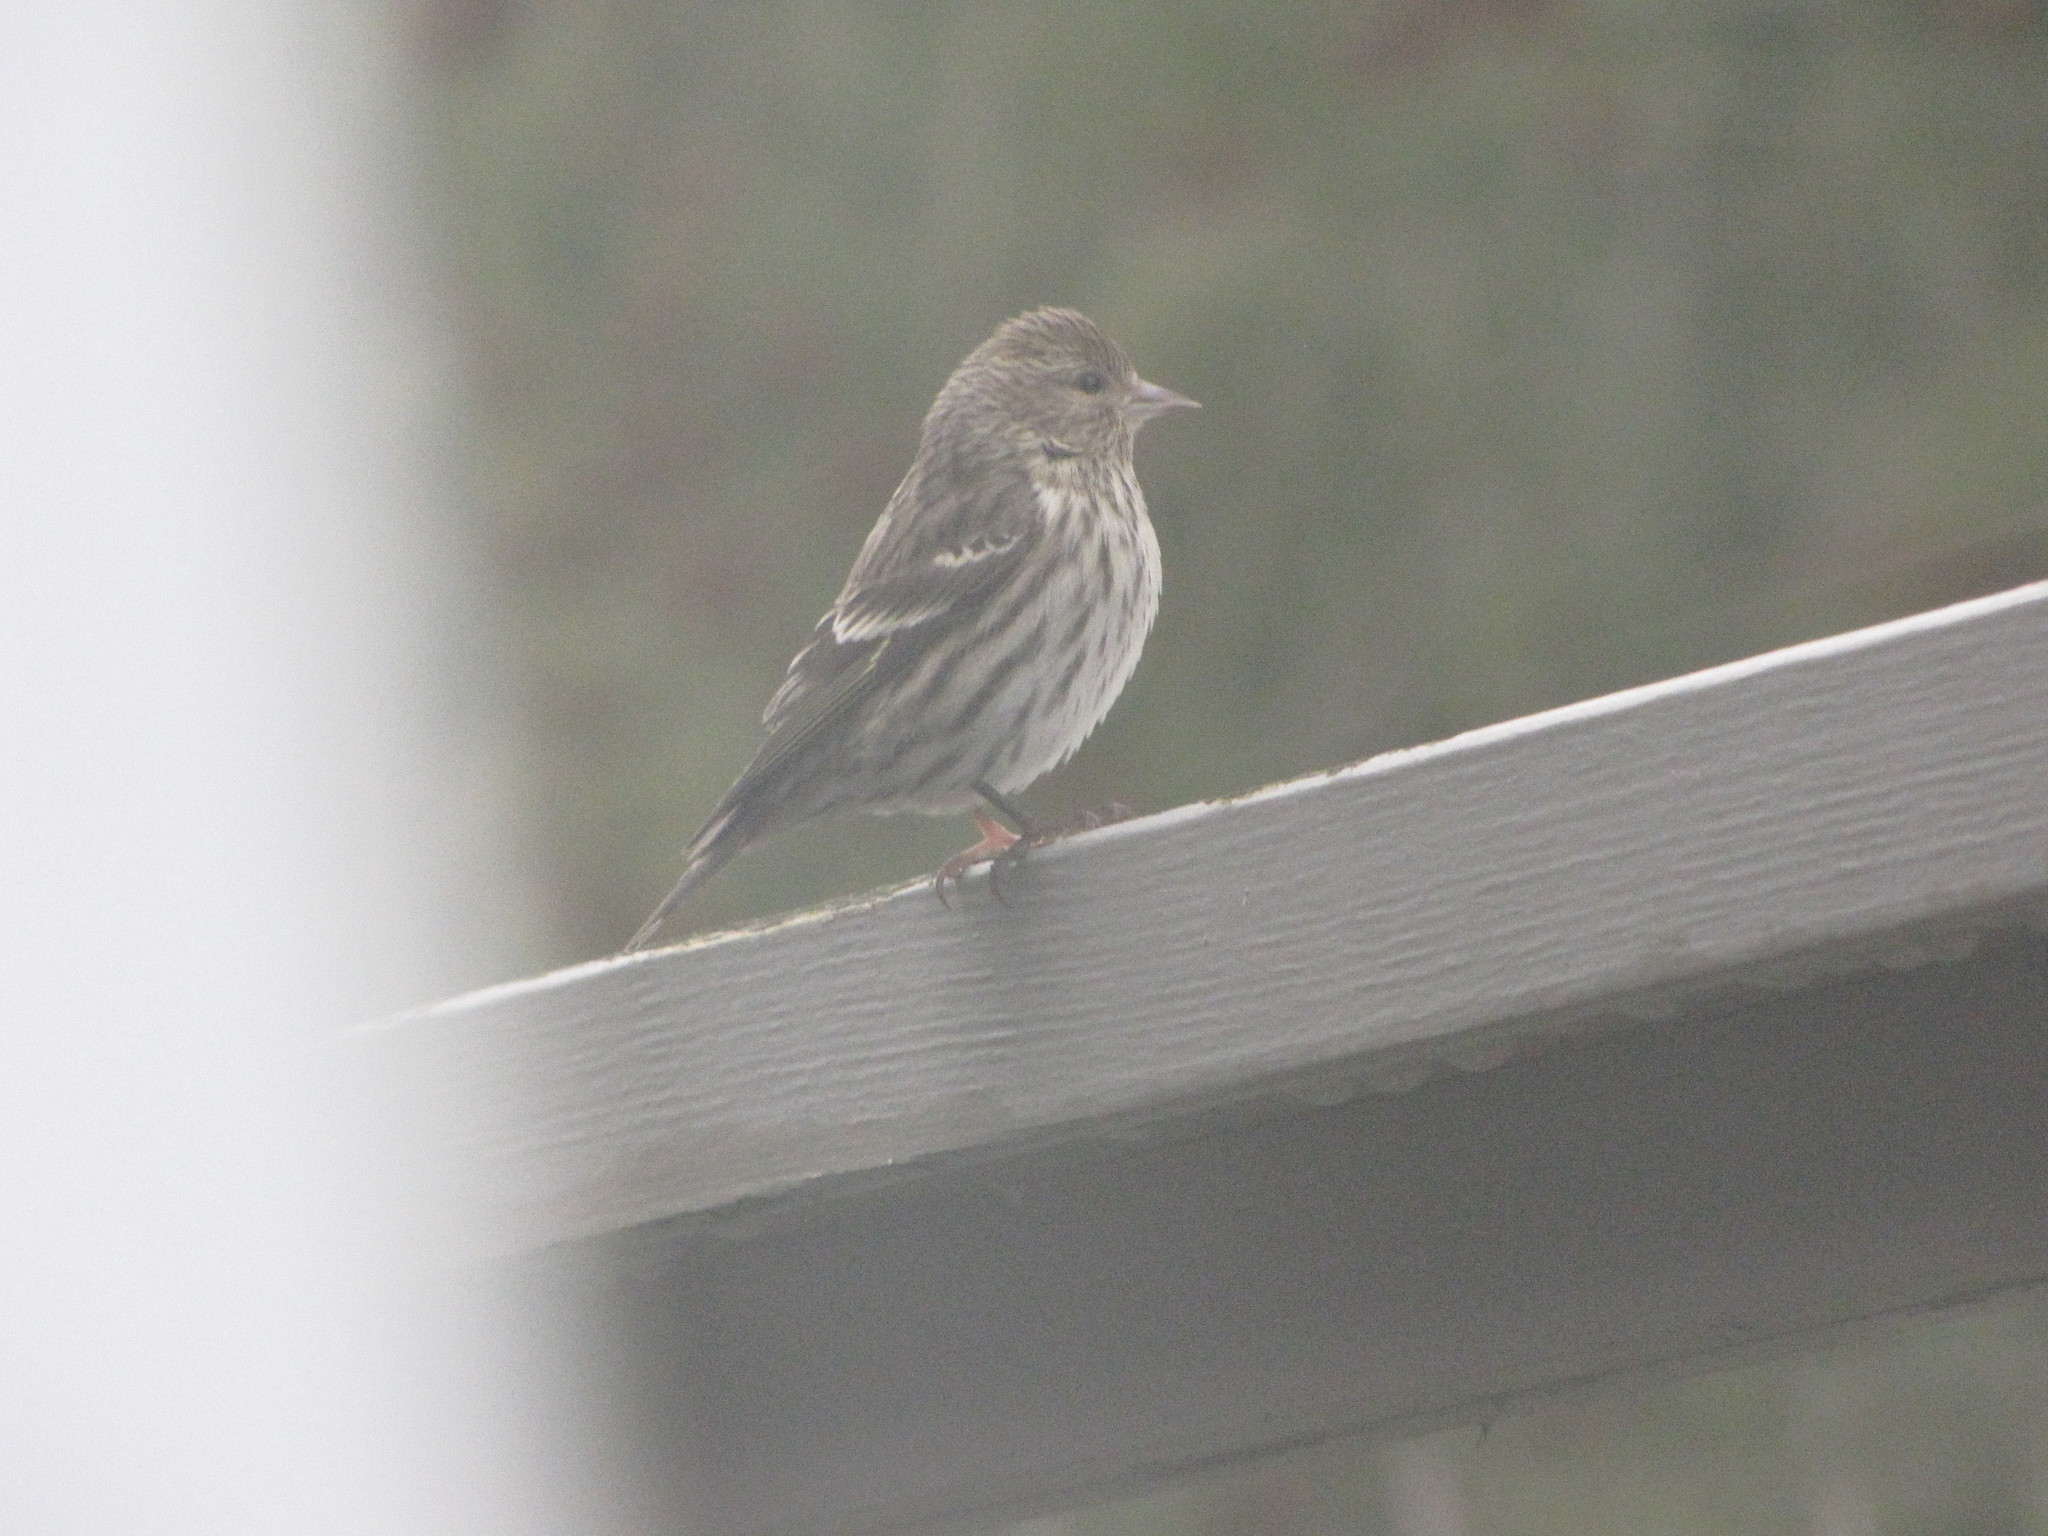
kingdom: Animalia
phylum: Chordata
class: Aves
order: Passeriformes
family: Fringillidae
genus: Spinus
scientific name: Spinus pinus
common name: Pine siskin
